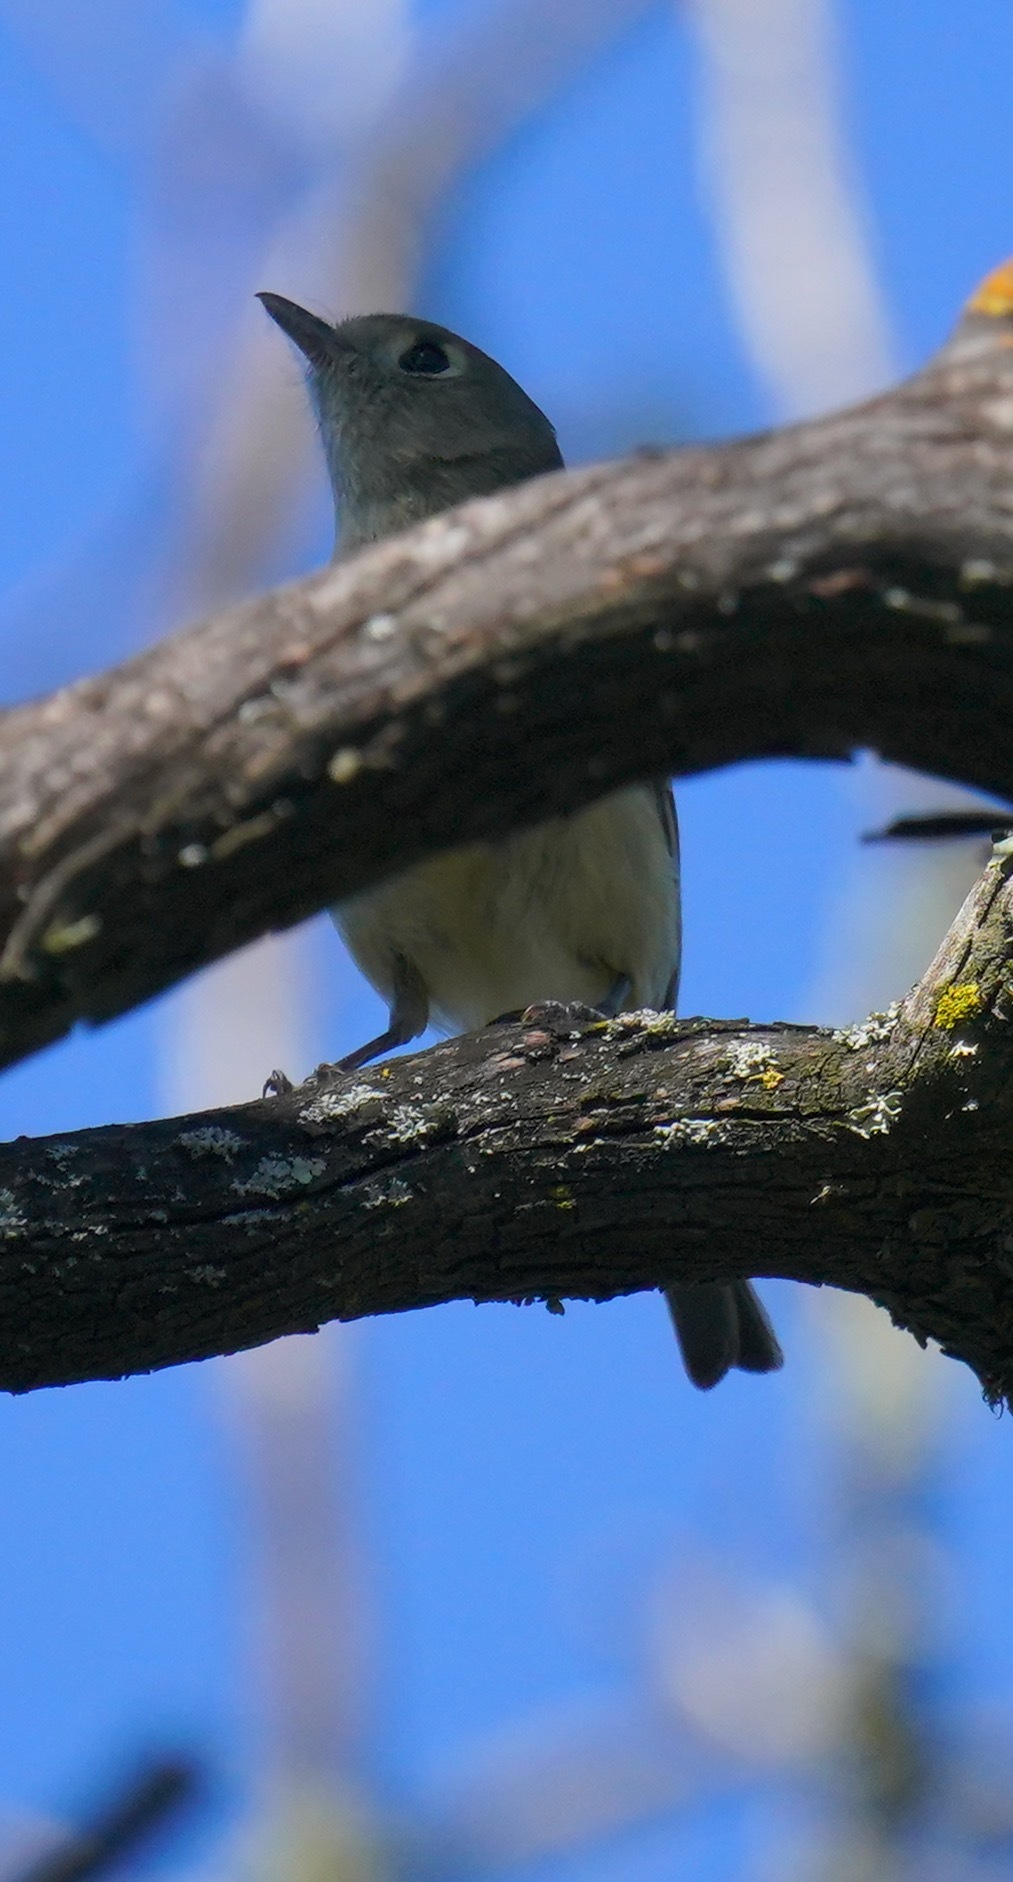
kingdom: Animalia
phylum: Chordata
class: Aves
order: Passeriformes
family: Vireonidae
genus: Vireo
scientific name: Vireo huttoni
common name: Hutton's vireo
